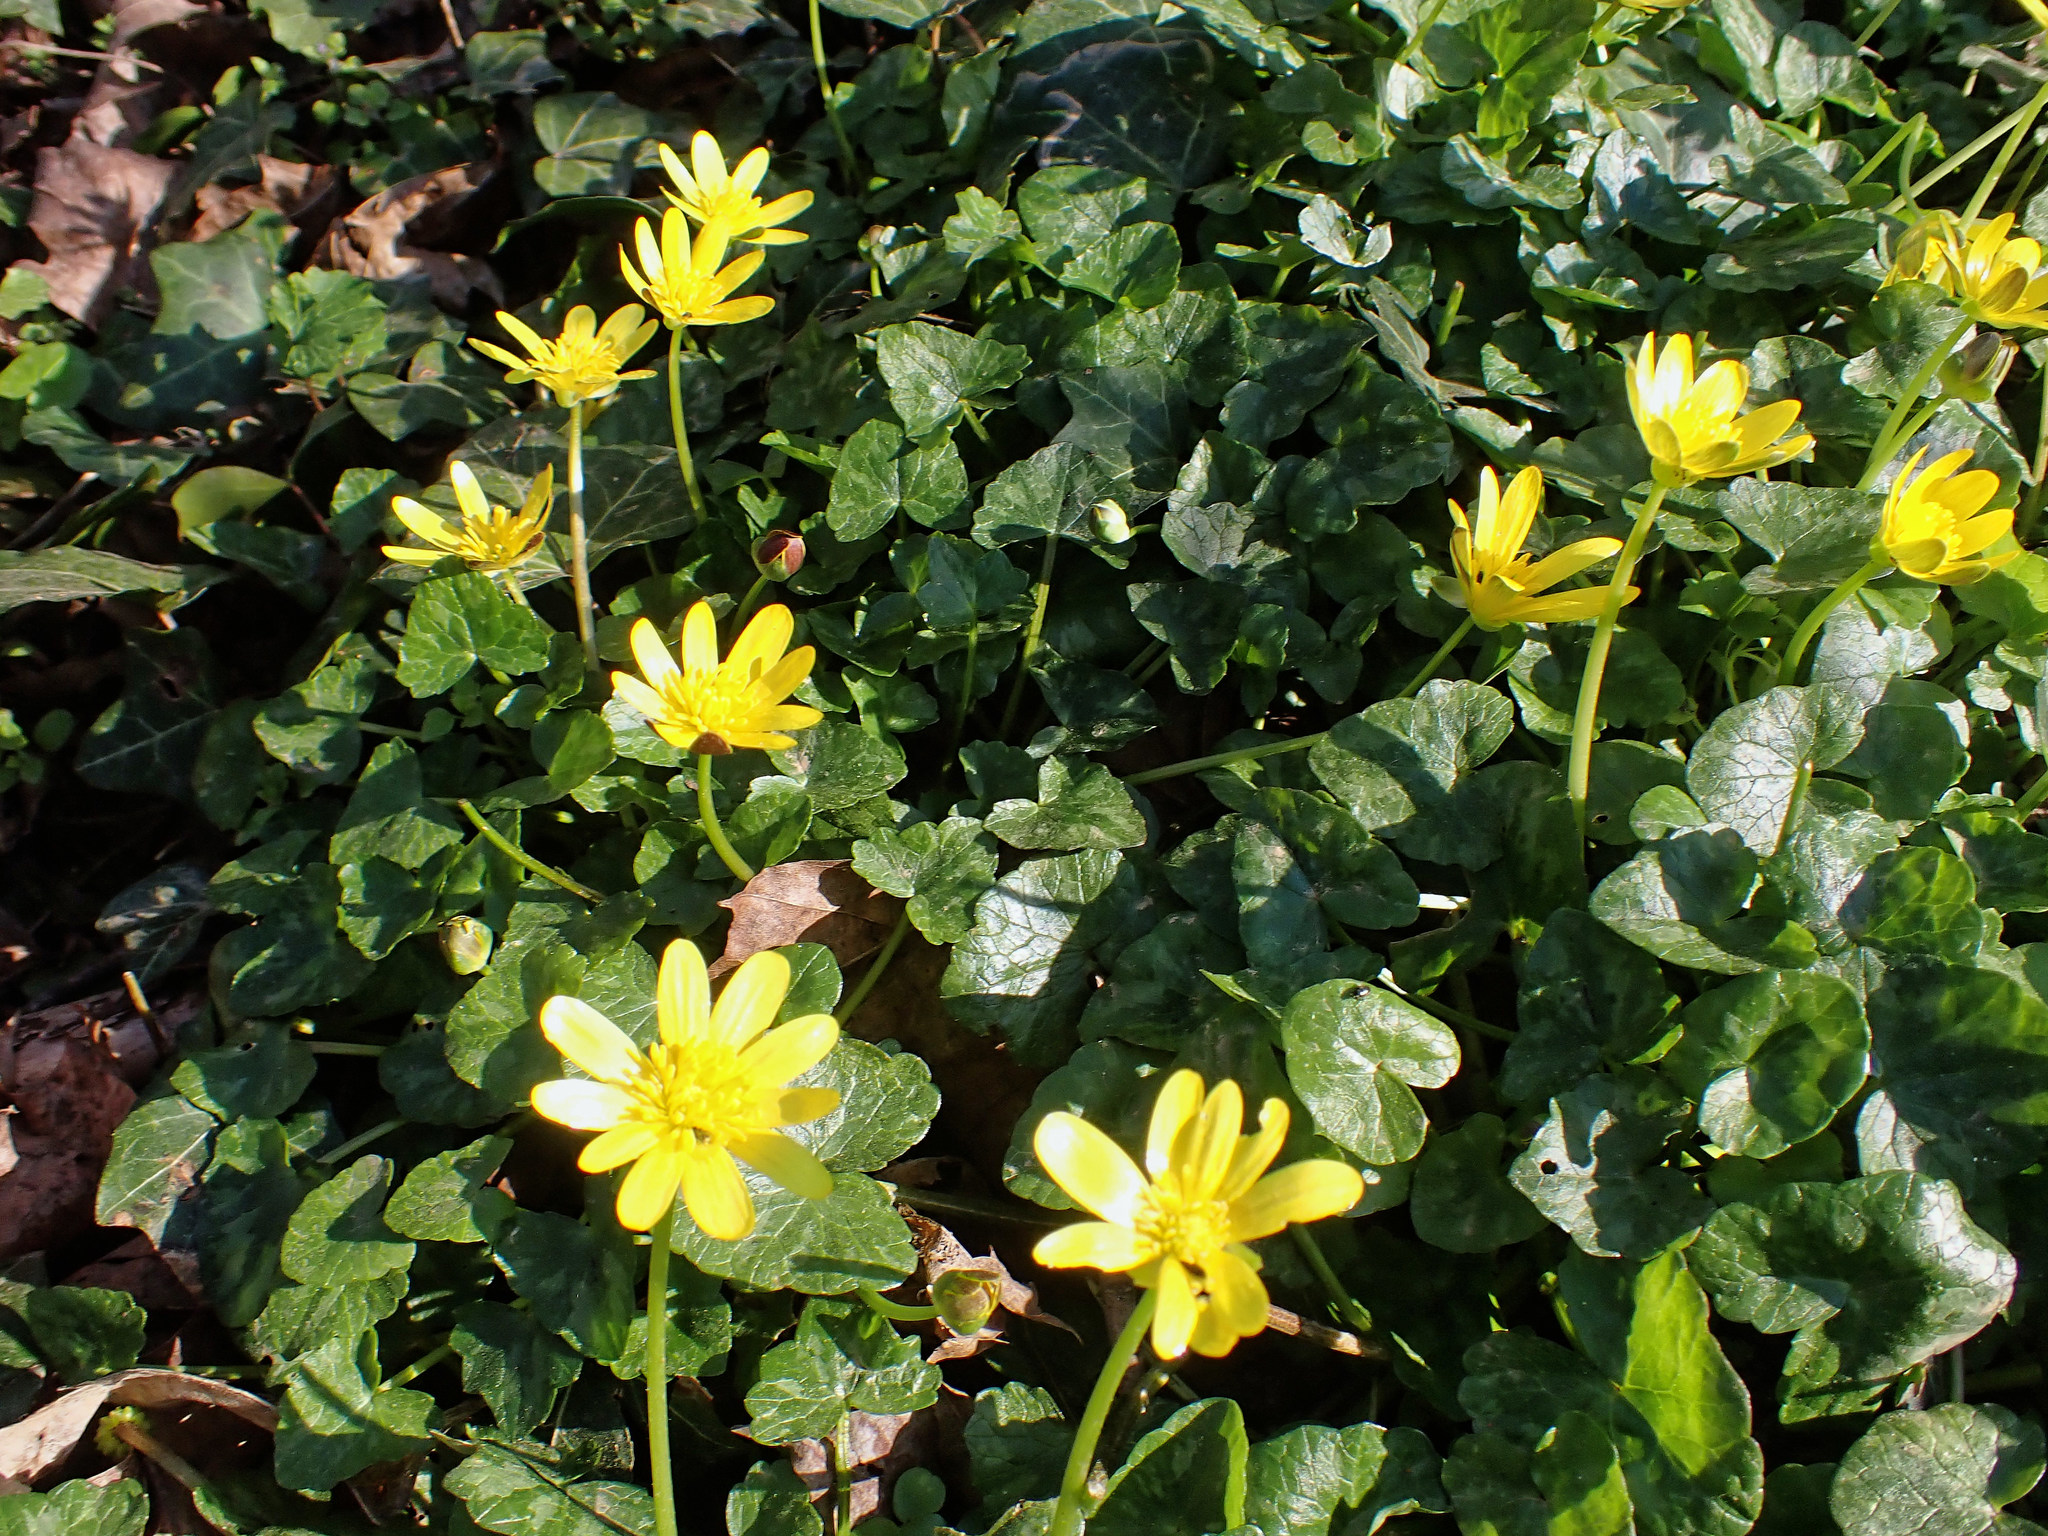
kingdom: Plantae
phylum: Tracheophyta
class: Magnoliopsida
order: Ranunculales
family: Ranunculaceae
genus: Ficaria
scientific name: Ficaria verna
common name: Lesser celandine
